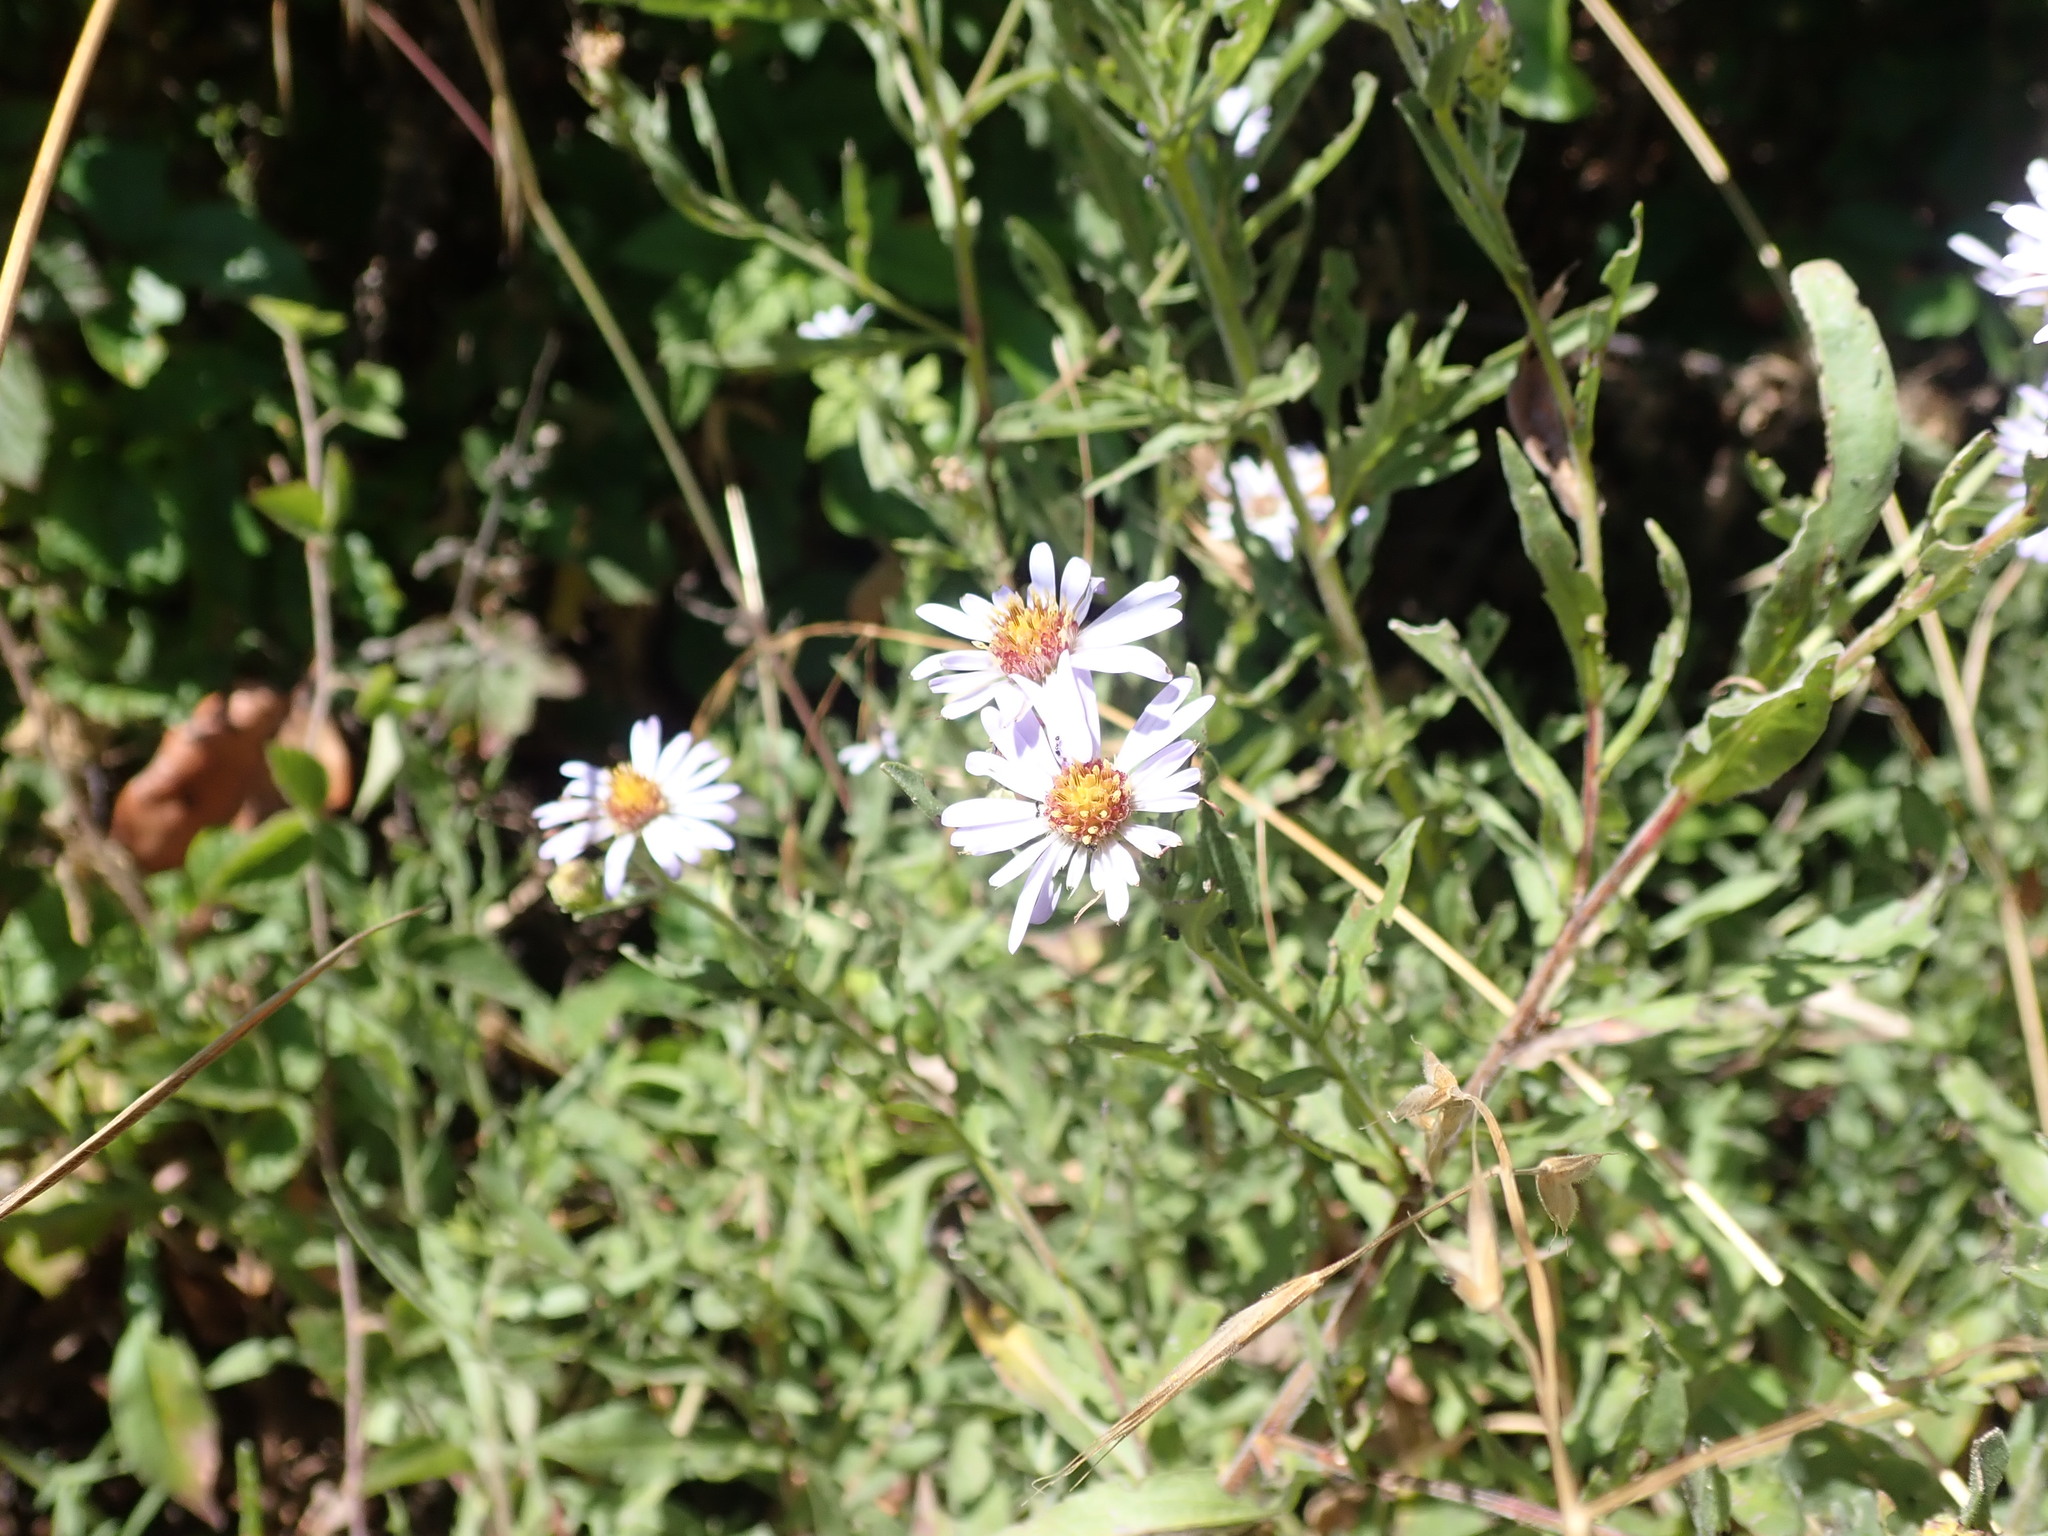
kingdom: Plantae
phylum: Tracheophyta
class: Magnoliopsida
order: Asterales
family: Asteraceae
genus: Symphyotrichum
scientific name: Symphyotrichum chilense
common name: Pacific aster
